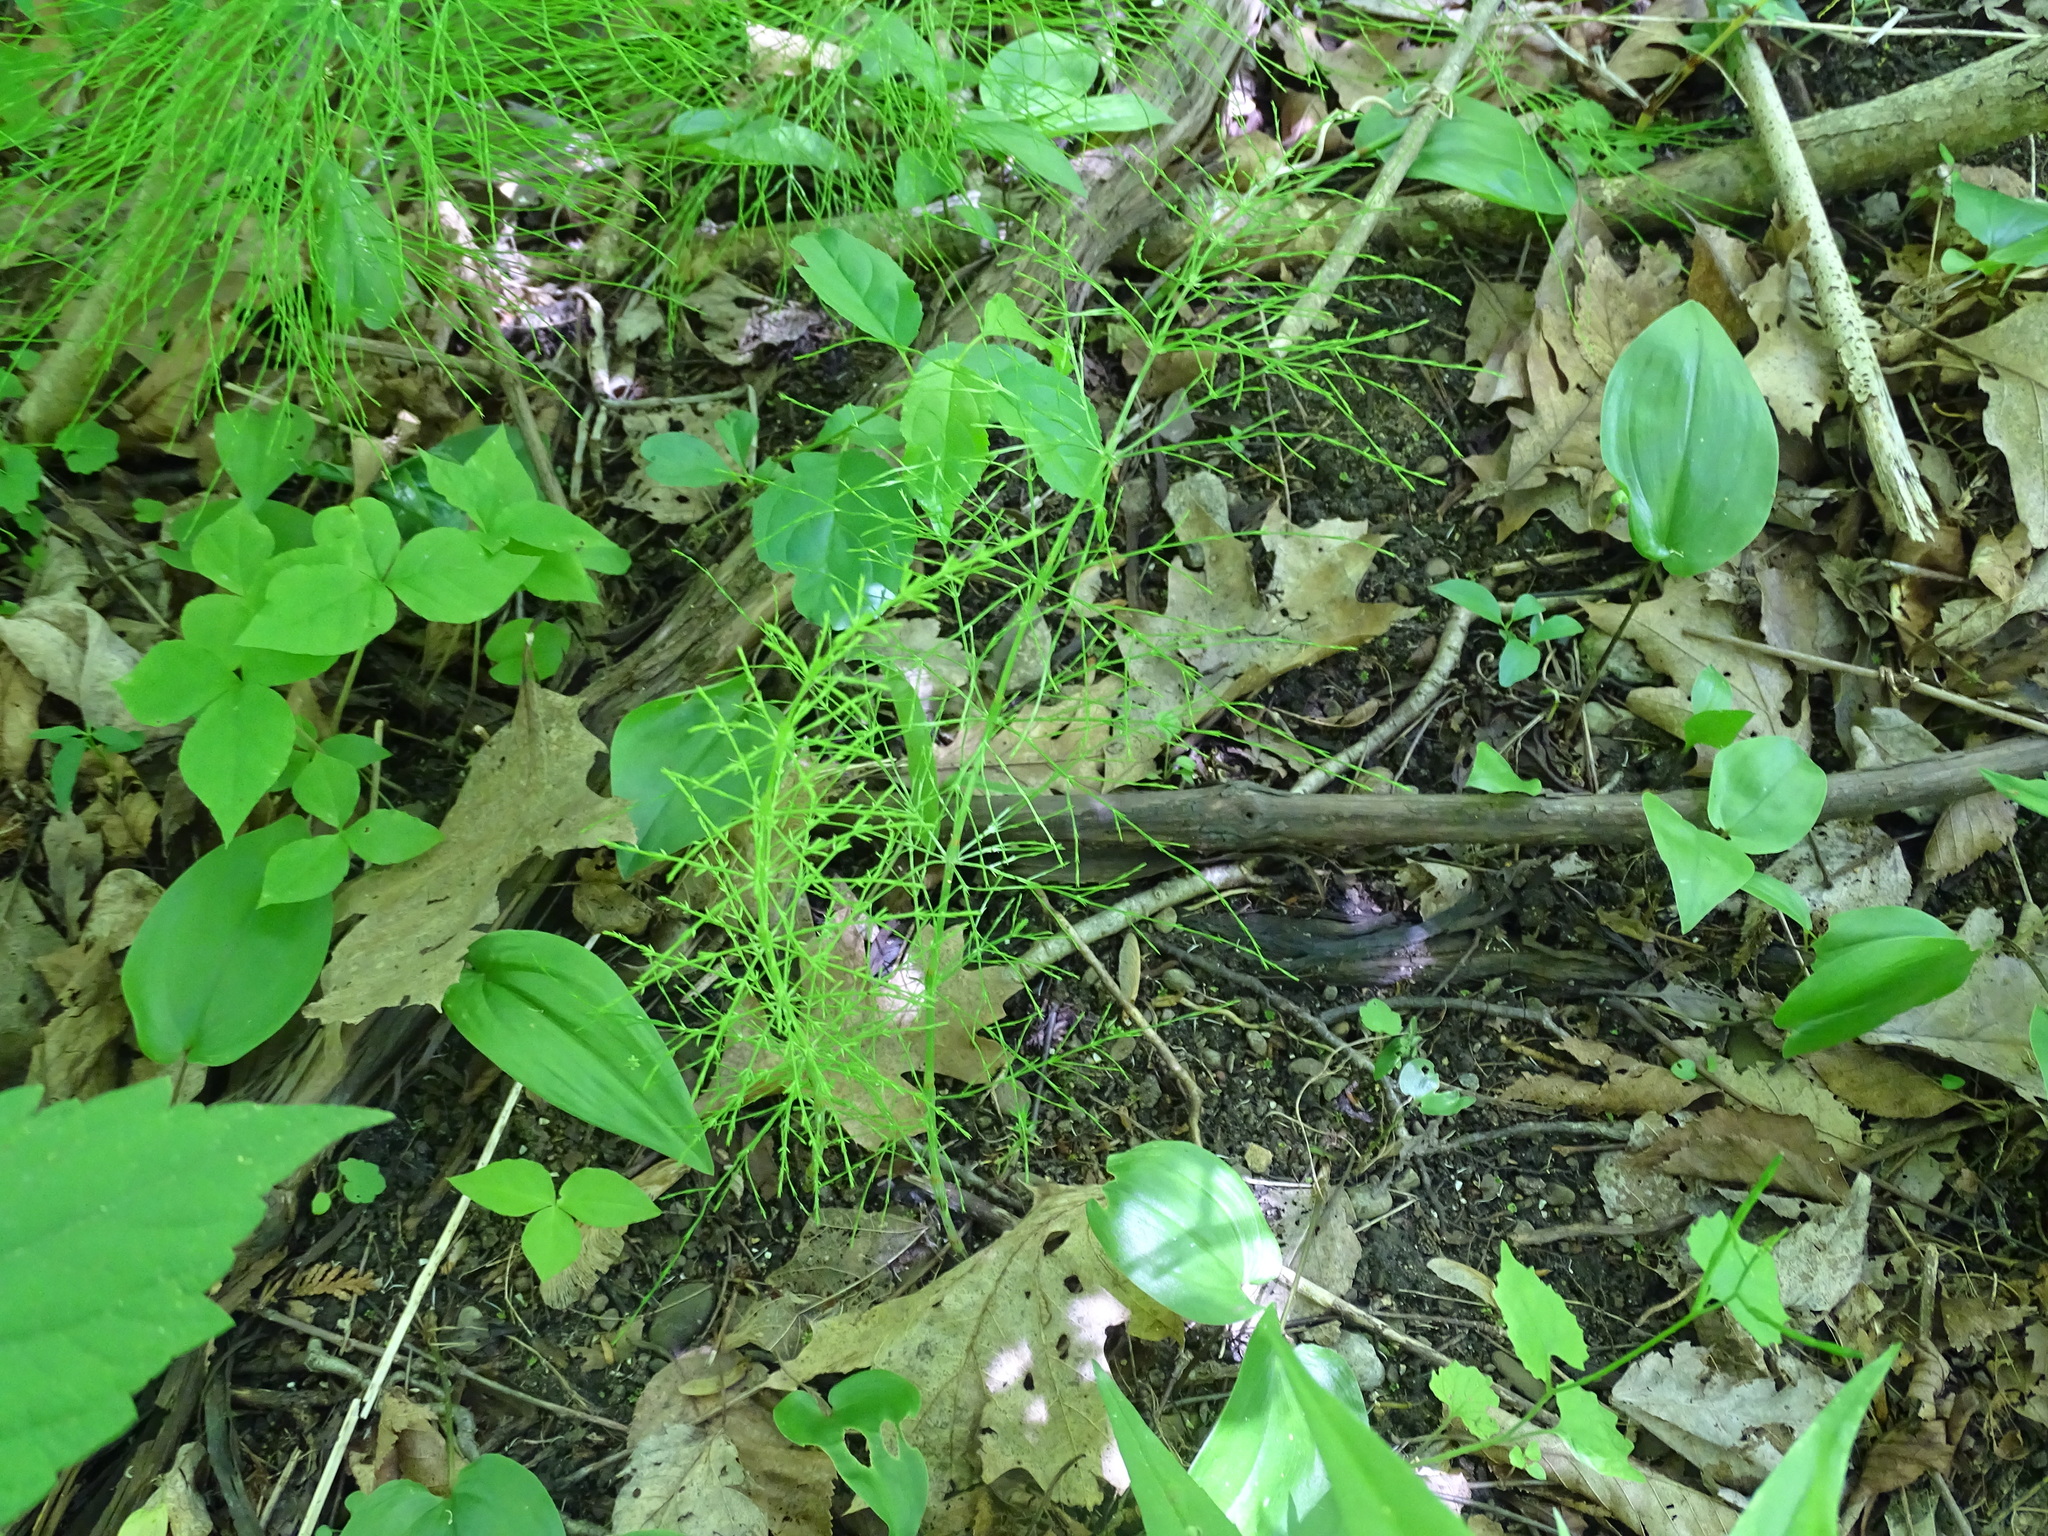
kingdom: Plantae
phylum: Tracheophyta
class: Polypodiopsida
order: Equisetales
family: Equisetaceae
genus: Equisetum
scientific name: Equisetum sylvaticum
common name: Wood horsetail
